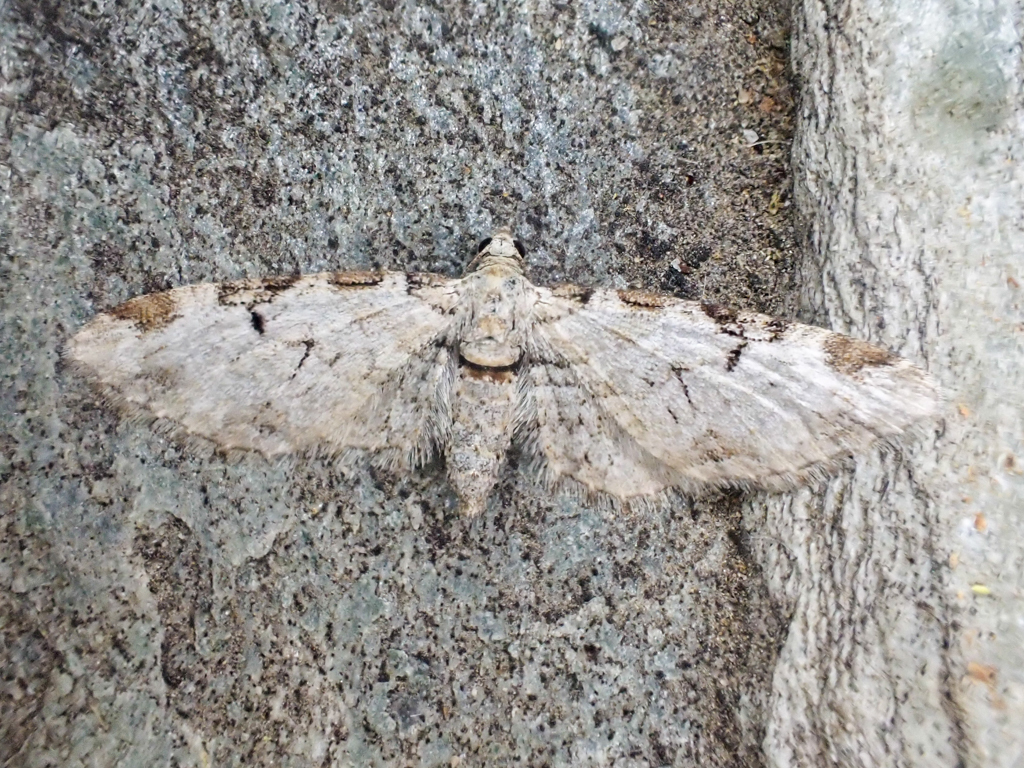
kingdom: Animalia
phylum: Arthropoda
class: Insecta
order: Lepidoptera
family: Geometridae
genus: Eupithecia
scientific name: Eupithecia zelmira
